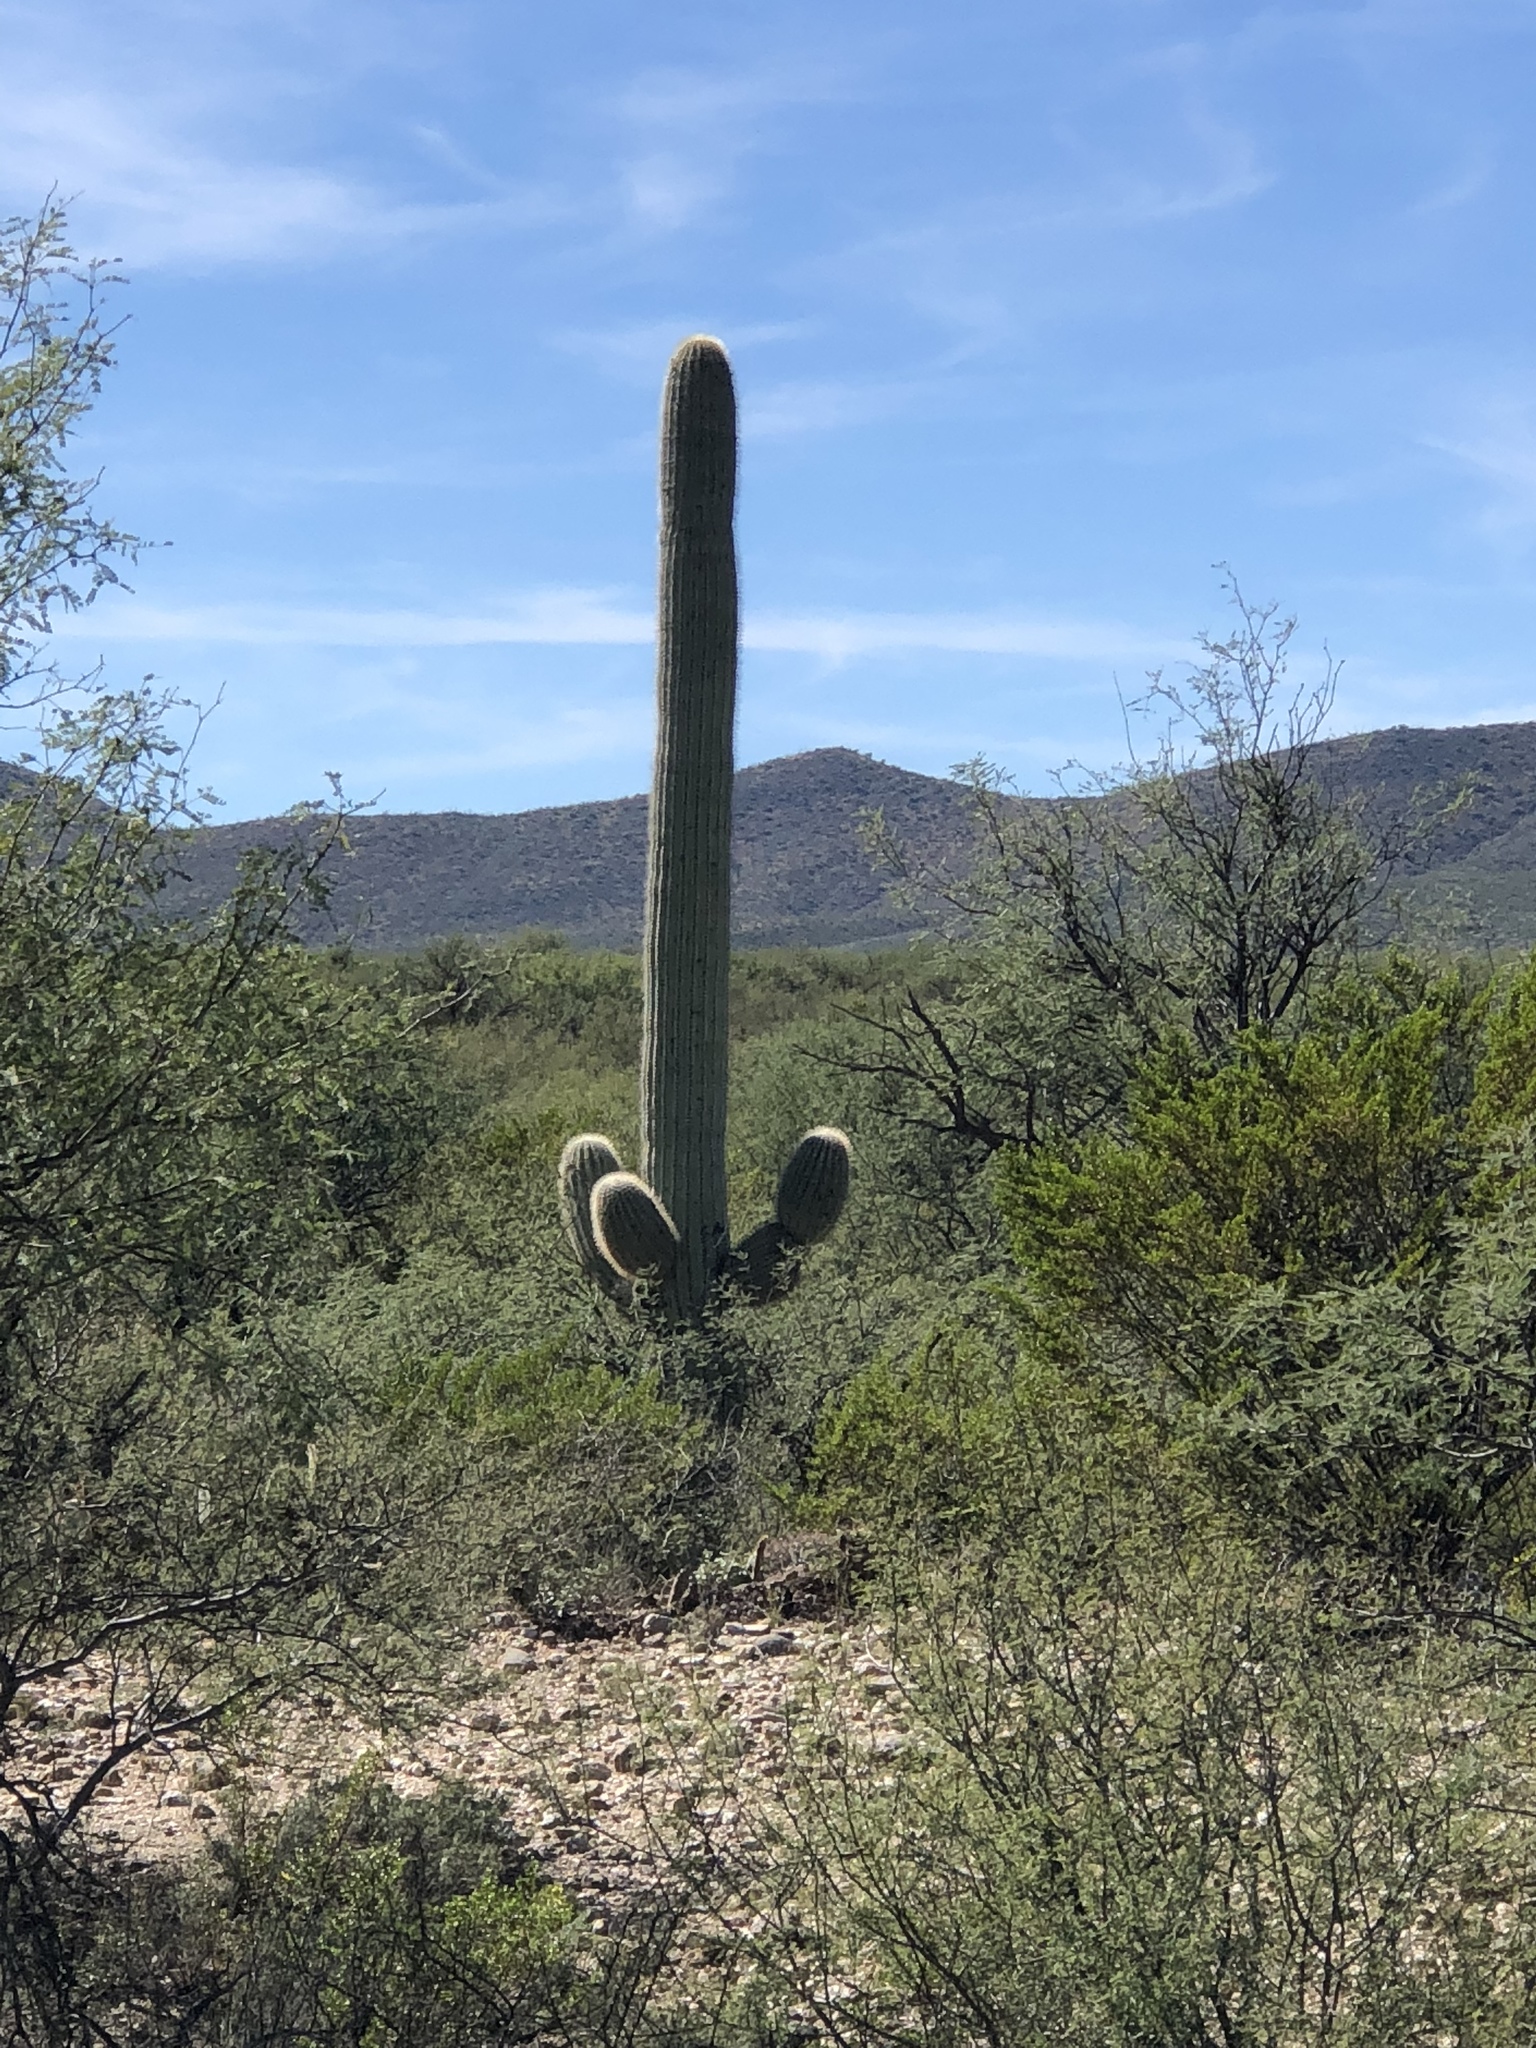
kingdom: Plantae
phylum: Tracheophyta
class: Magnoliopsida
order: Caryophyllales
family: Cactaceae
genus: Carnegiea
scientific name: Carnegiea gigantea
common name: Saguaro
